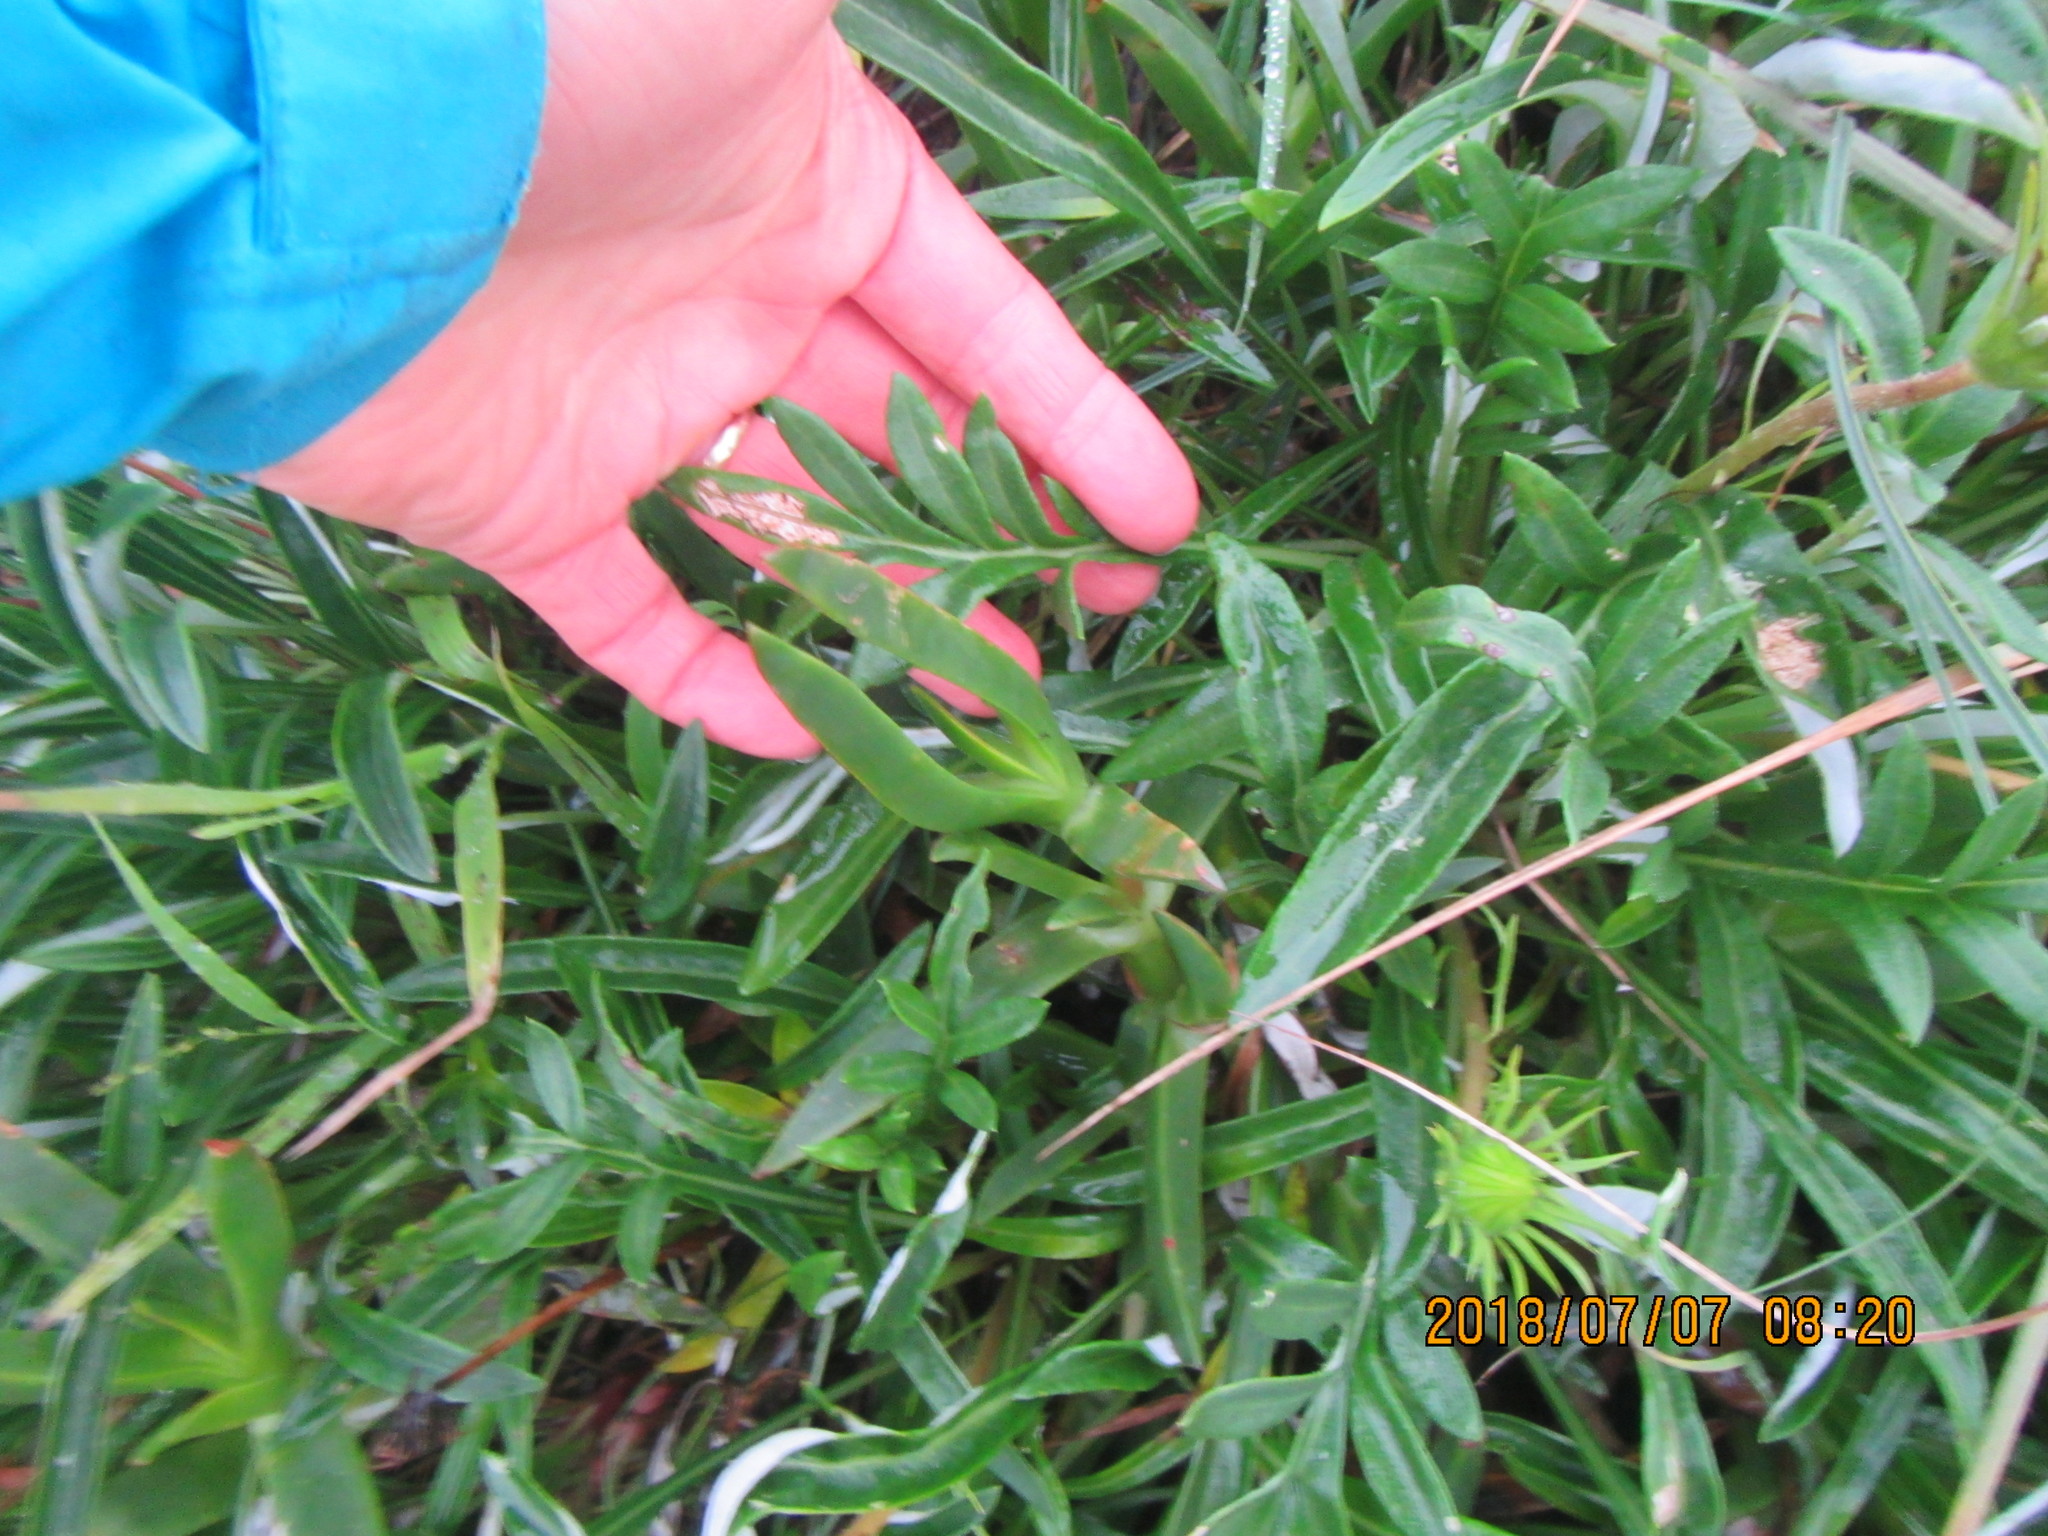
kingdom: Plantae
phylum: Tracheophyta
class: Magnoliopsida
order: Asterales
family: Asteraceae
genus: Gazania
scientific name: Gazania
